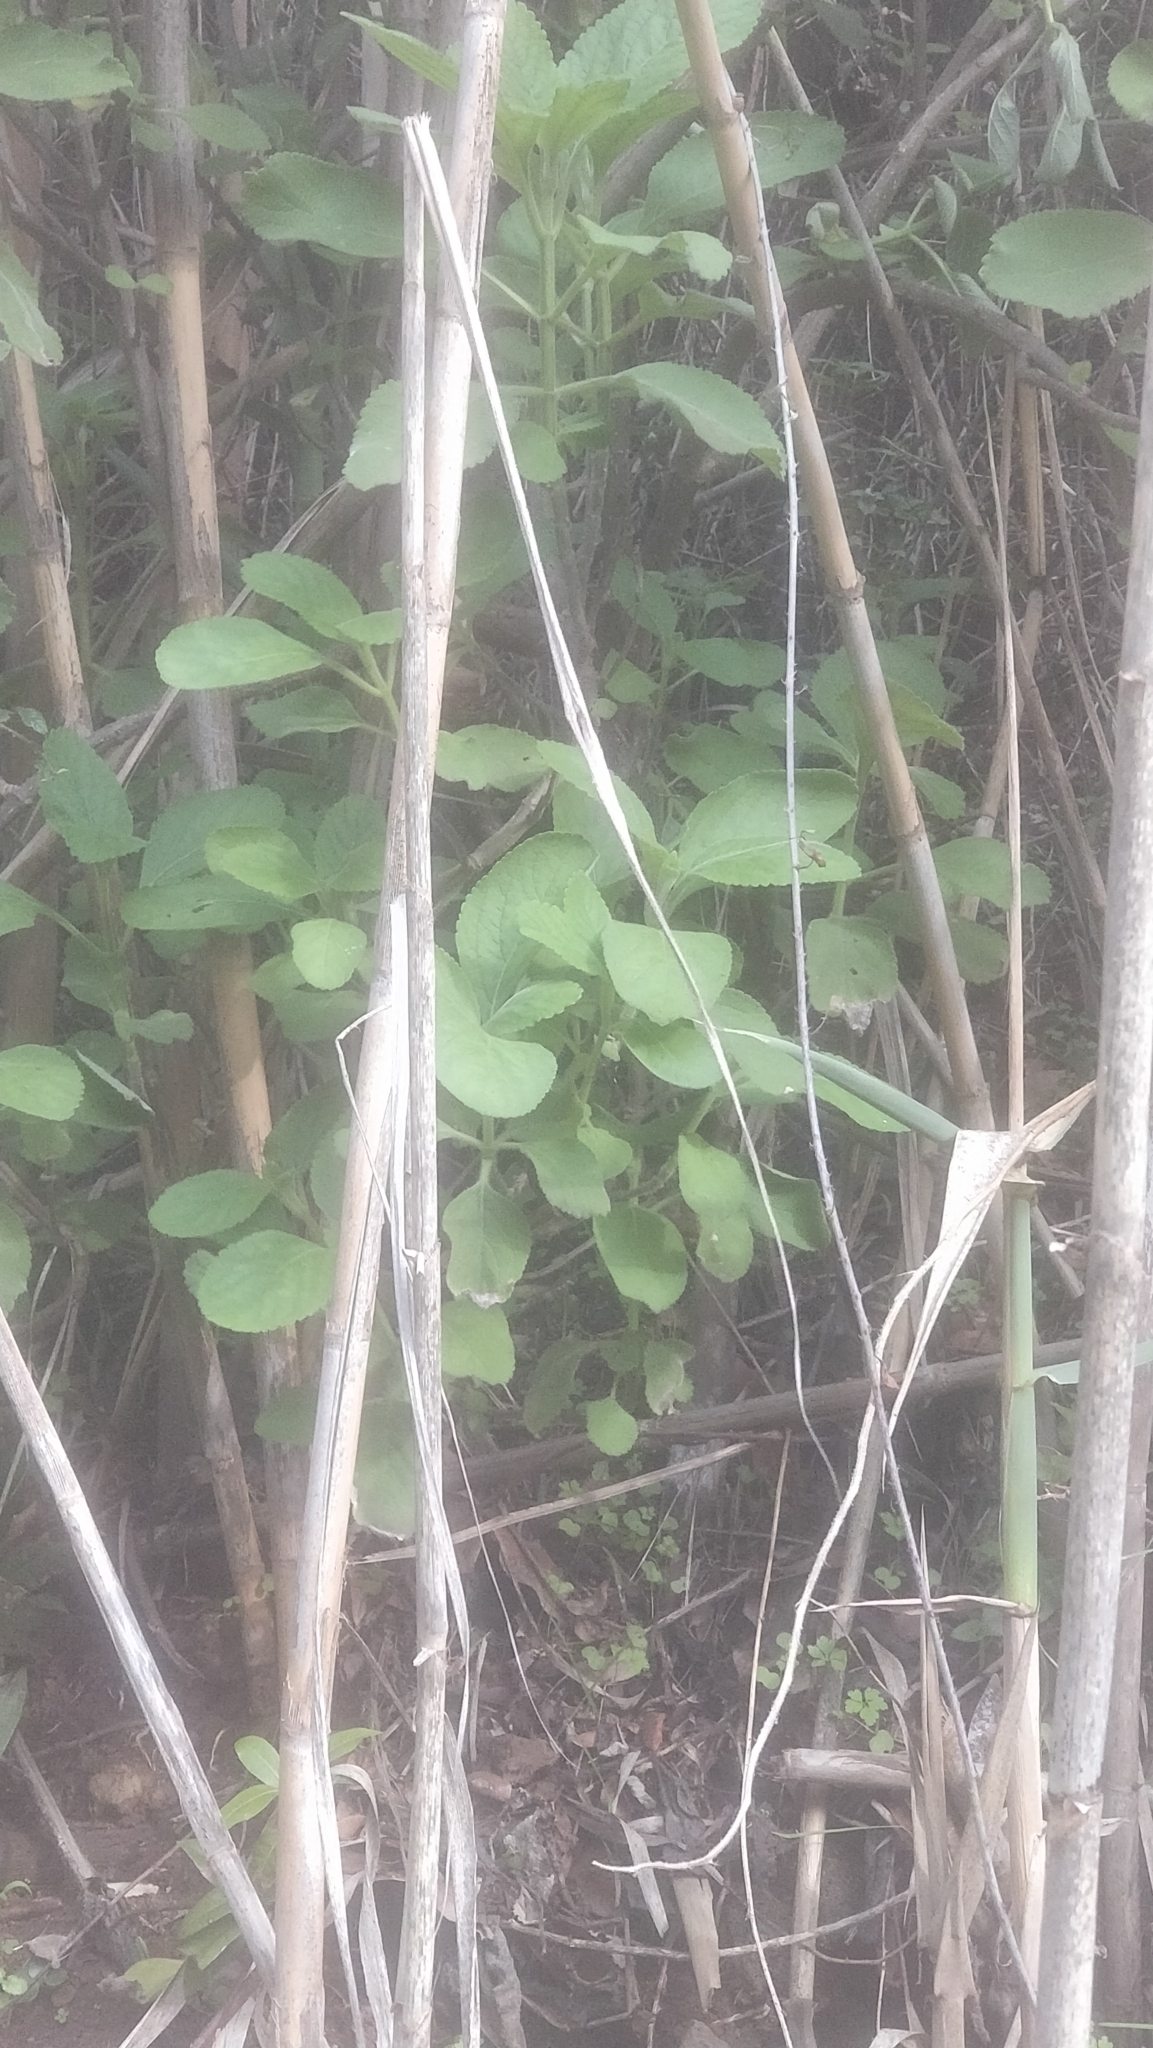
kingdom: Plantae
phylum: Tracheophyta
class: Magnoliopsida
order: Lamiales
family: Lamiaceae
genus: Coleus
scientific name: Coleus barbatus
